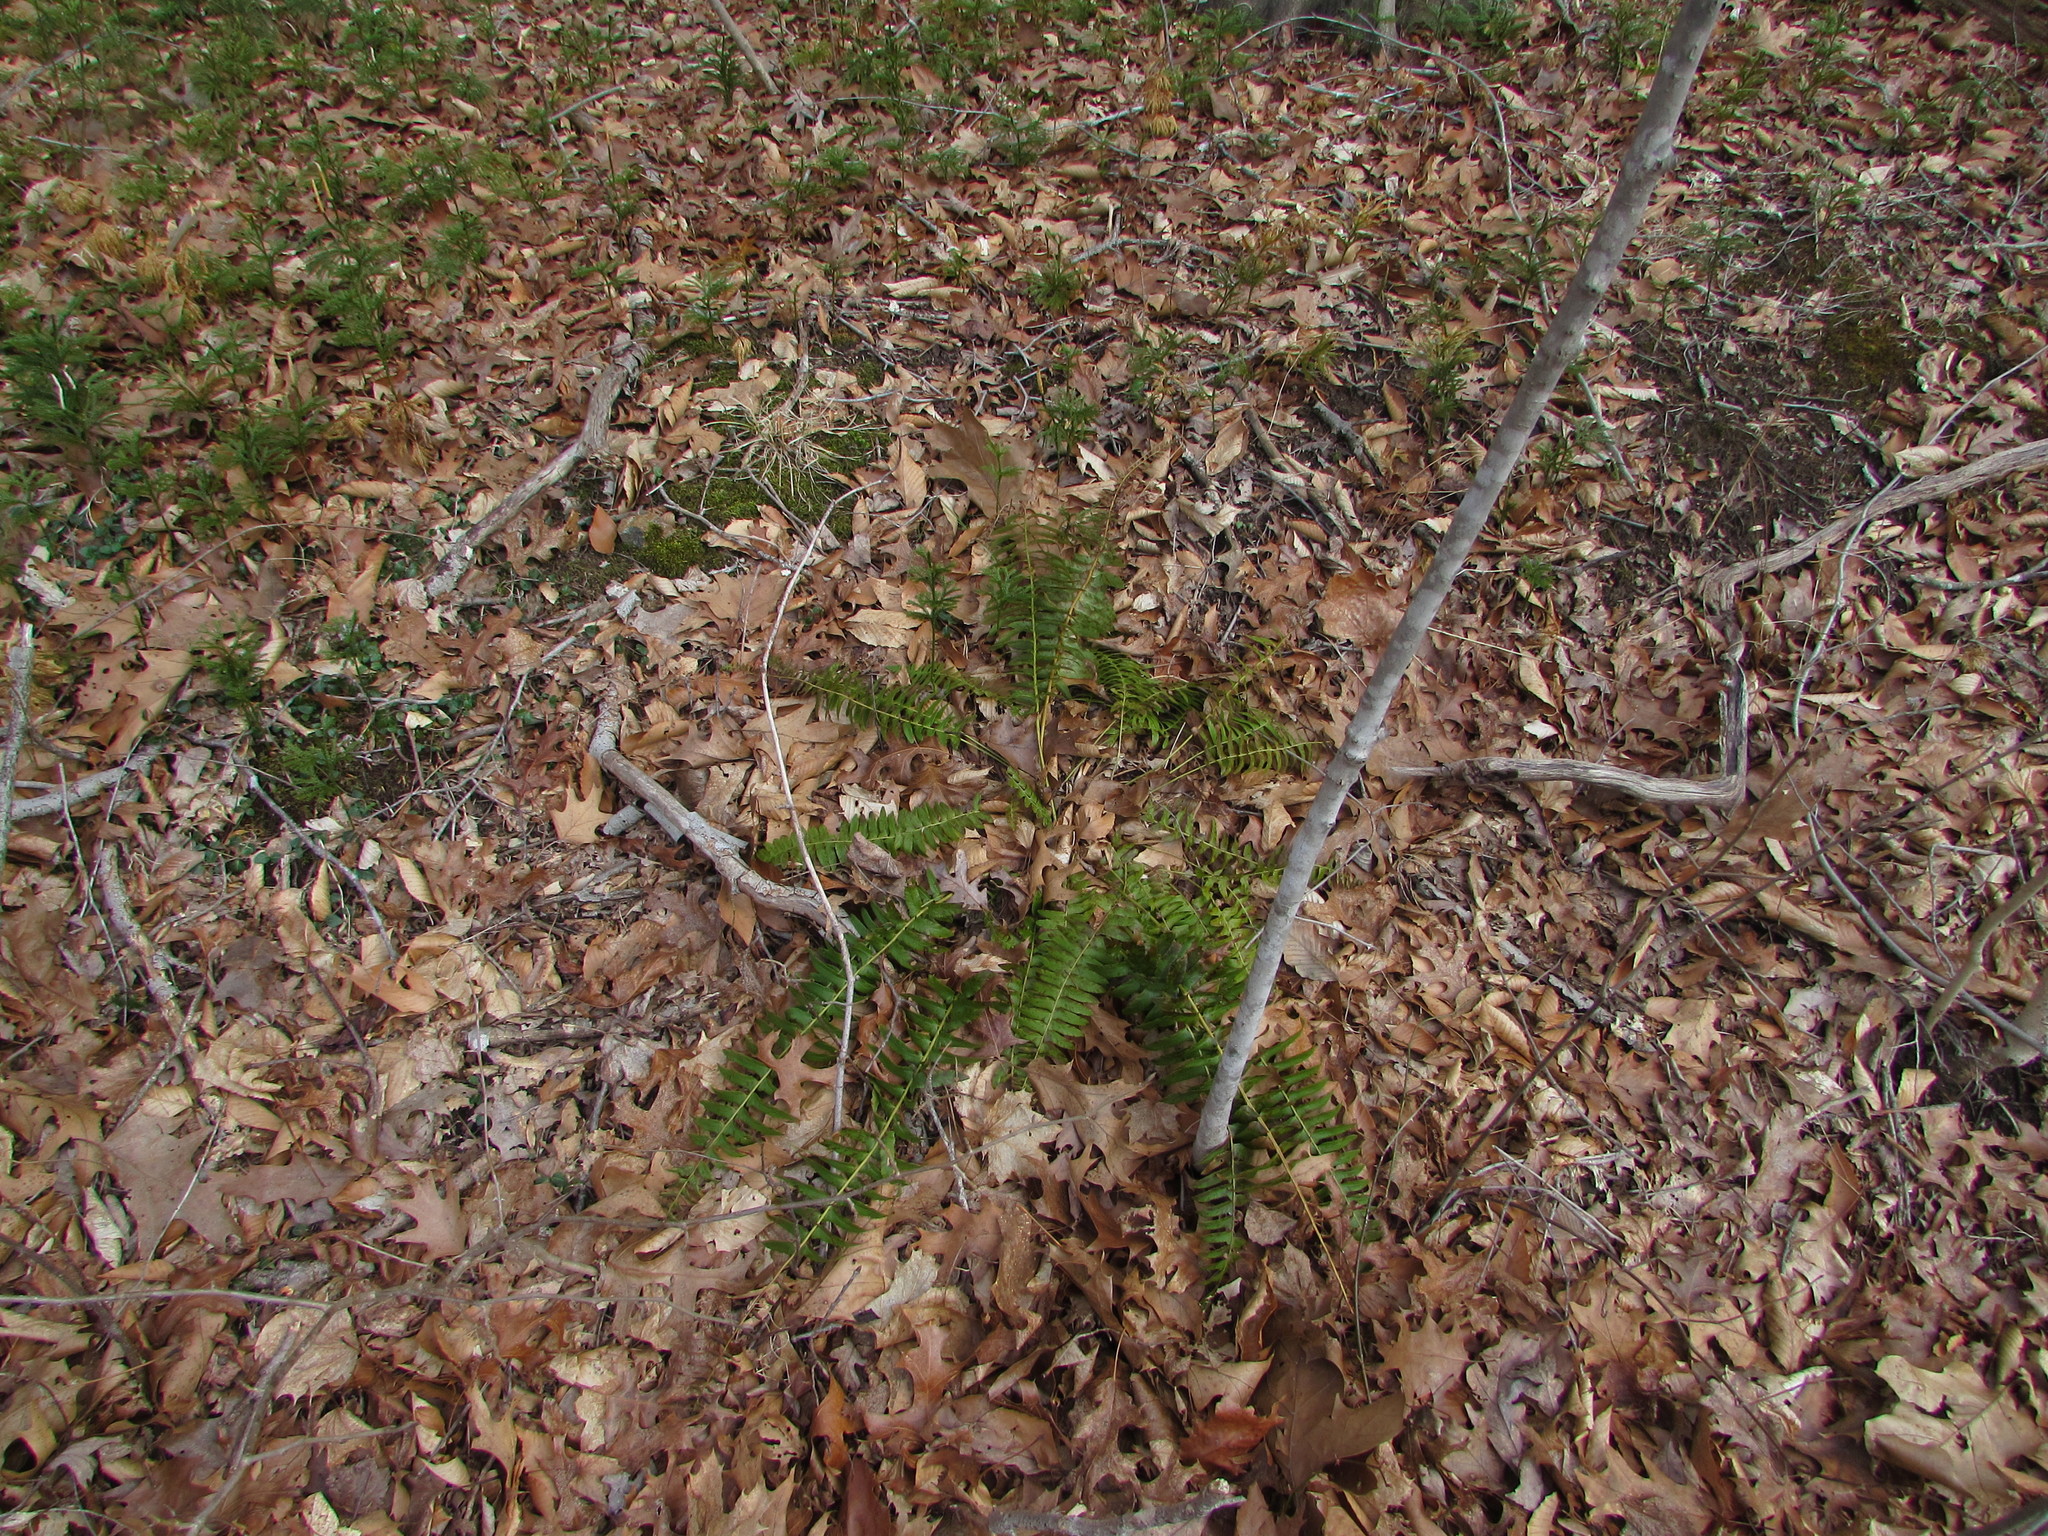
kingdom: Plantae
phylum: Tracheophyta
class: Polypodiopsida
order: Polypodiales
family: Dryopteridaceae
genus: Polystichum
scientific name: Polystichum acrostichoides
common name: Christmas fern
